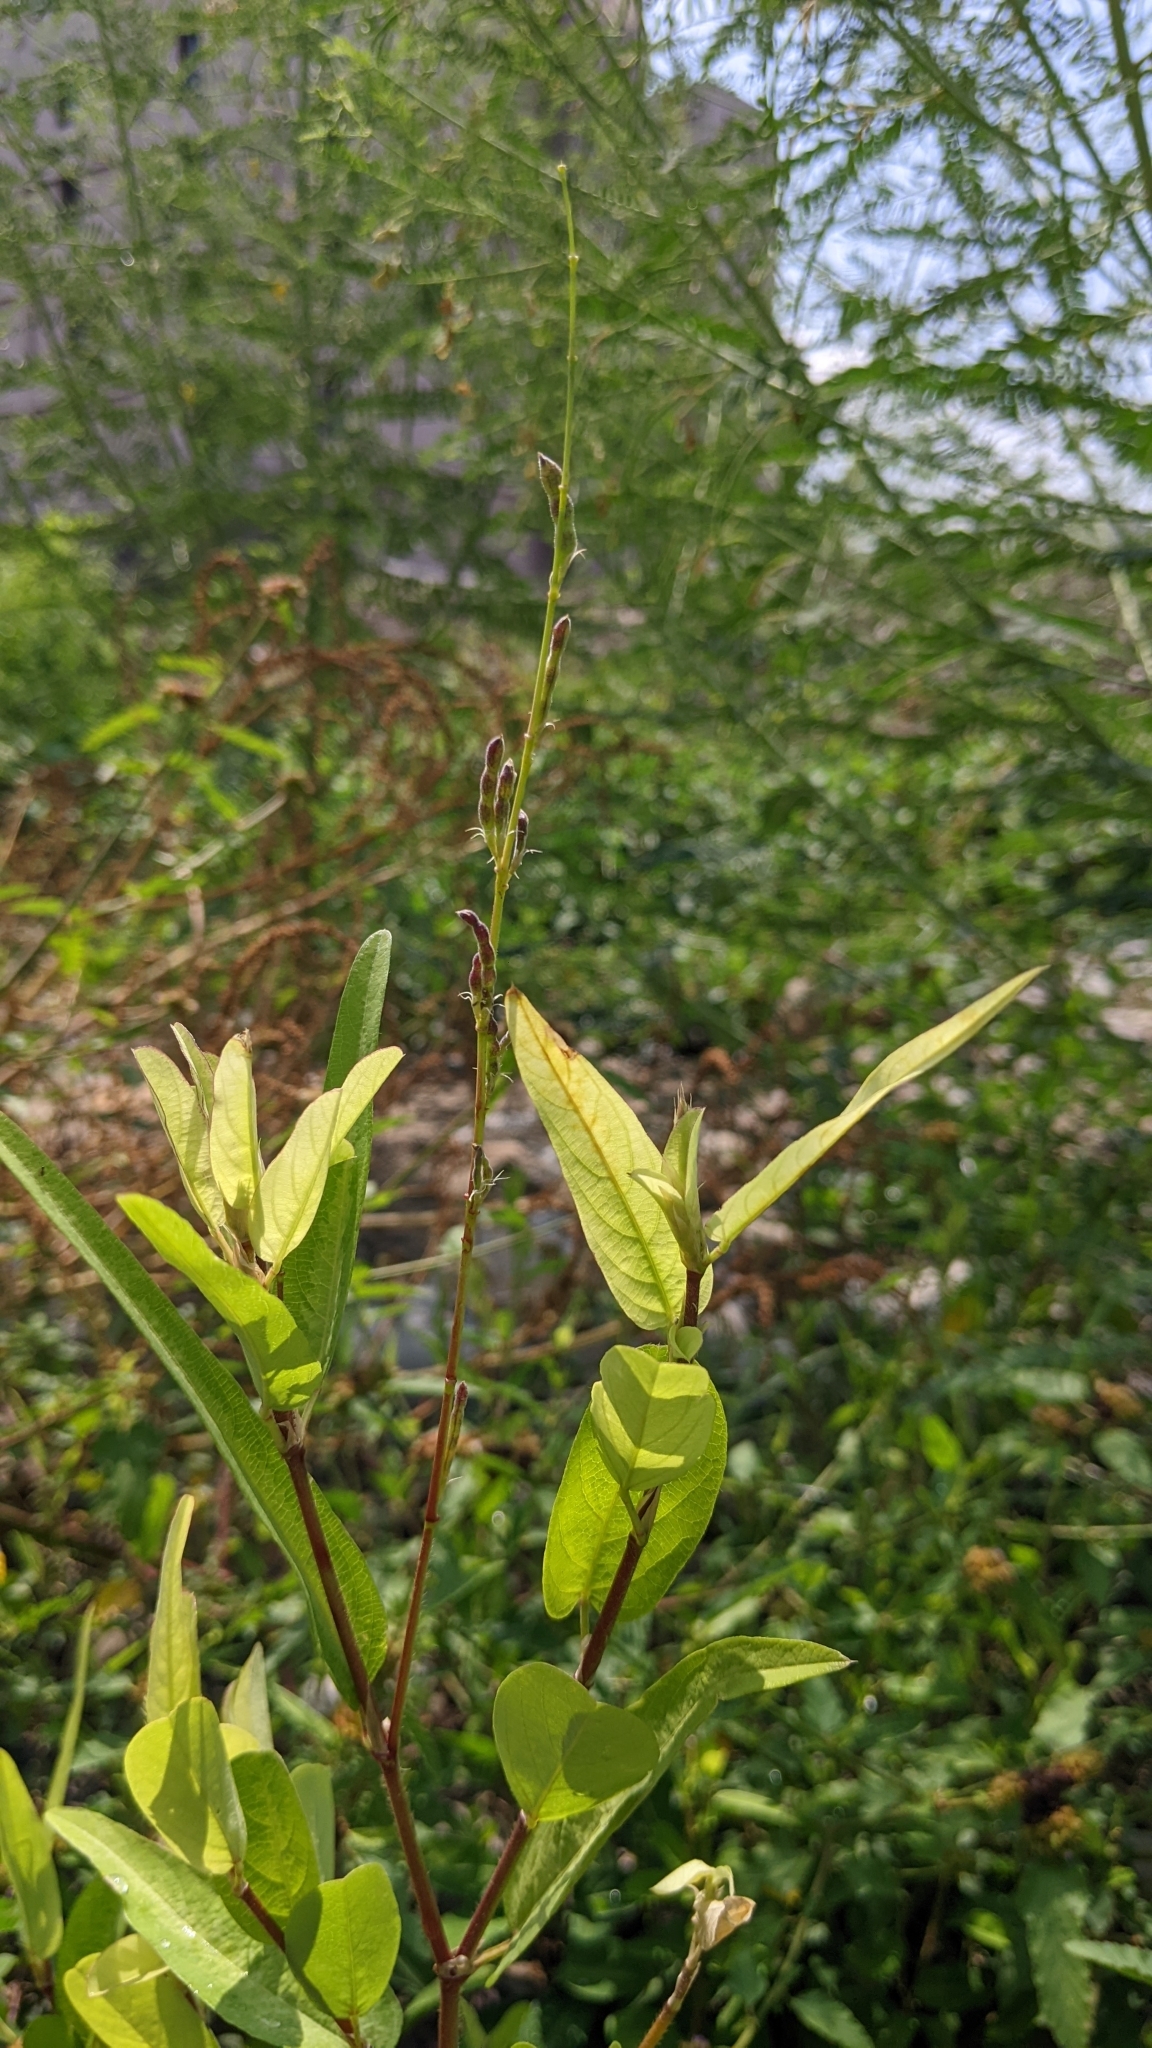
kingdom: Plantae
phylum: Tracheophyta
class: Magnoliopsida
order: Fabales
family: Fabaceae
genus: Alysicarpus
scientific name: Alysicarpus ovalifolius
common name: Alyce clover
